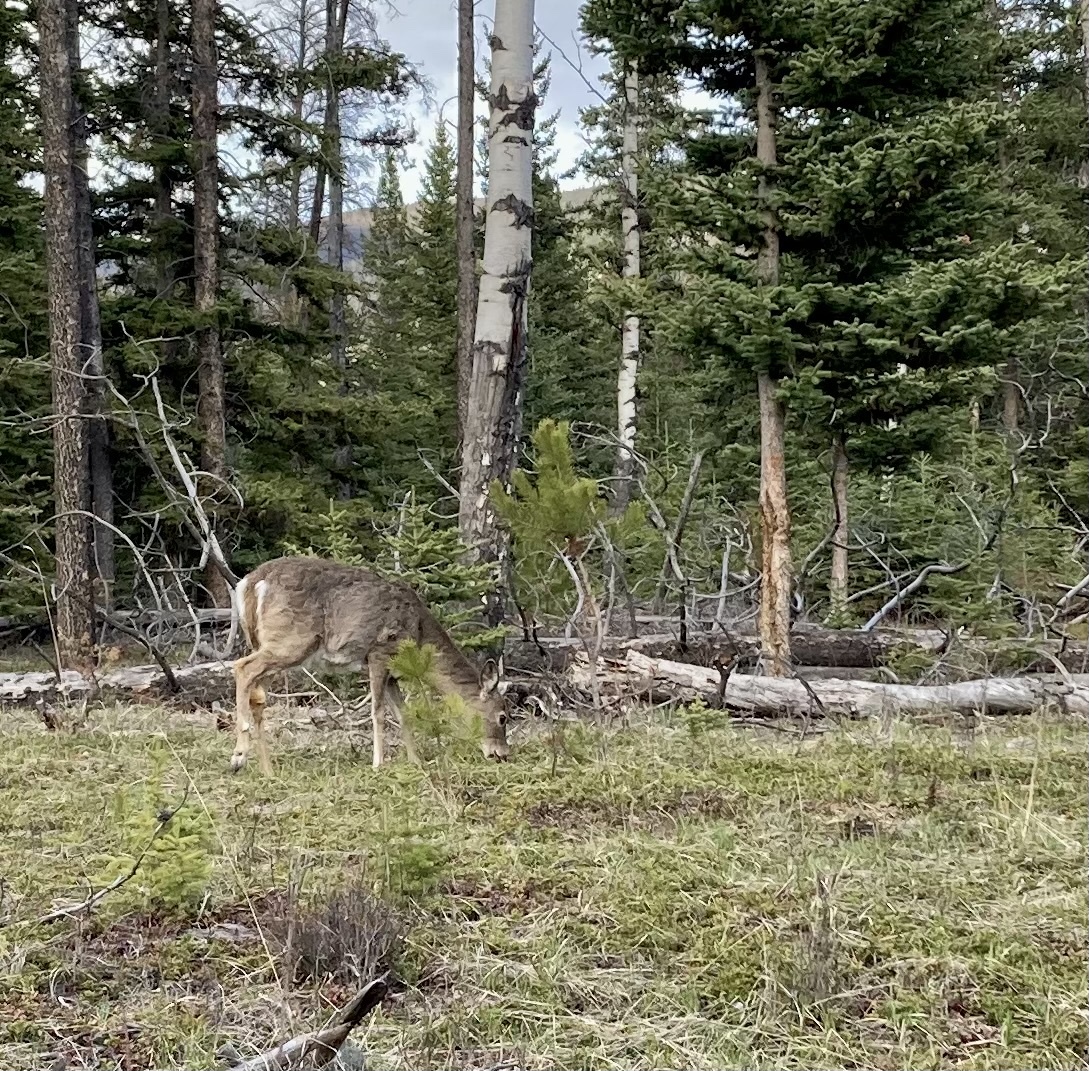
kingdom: Animalia
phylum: Chordata
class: Mammalia
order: Artiodactyla
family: Cervidae
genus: Odocoileus
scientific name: Odocoileus virginianus
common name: White-tailed deer
